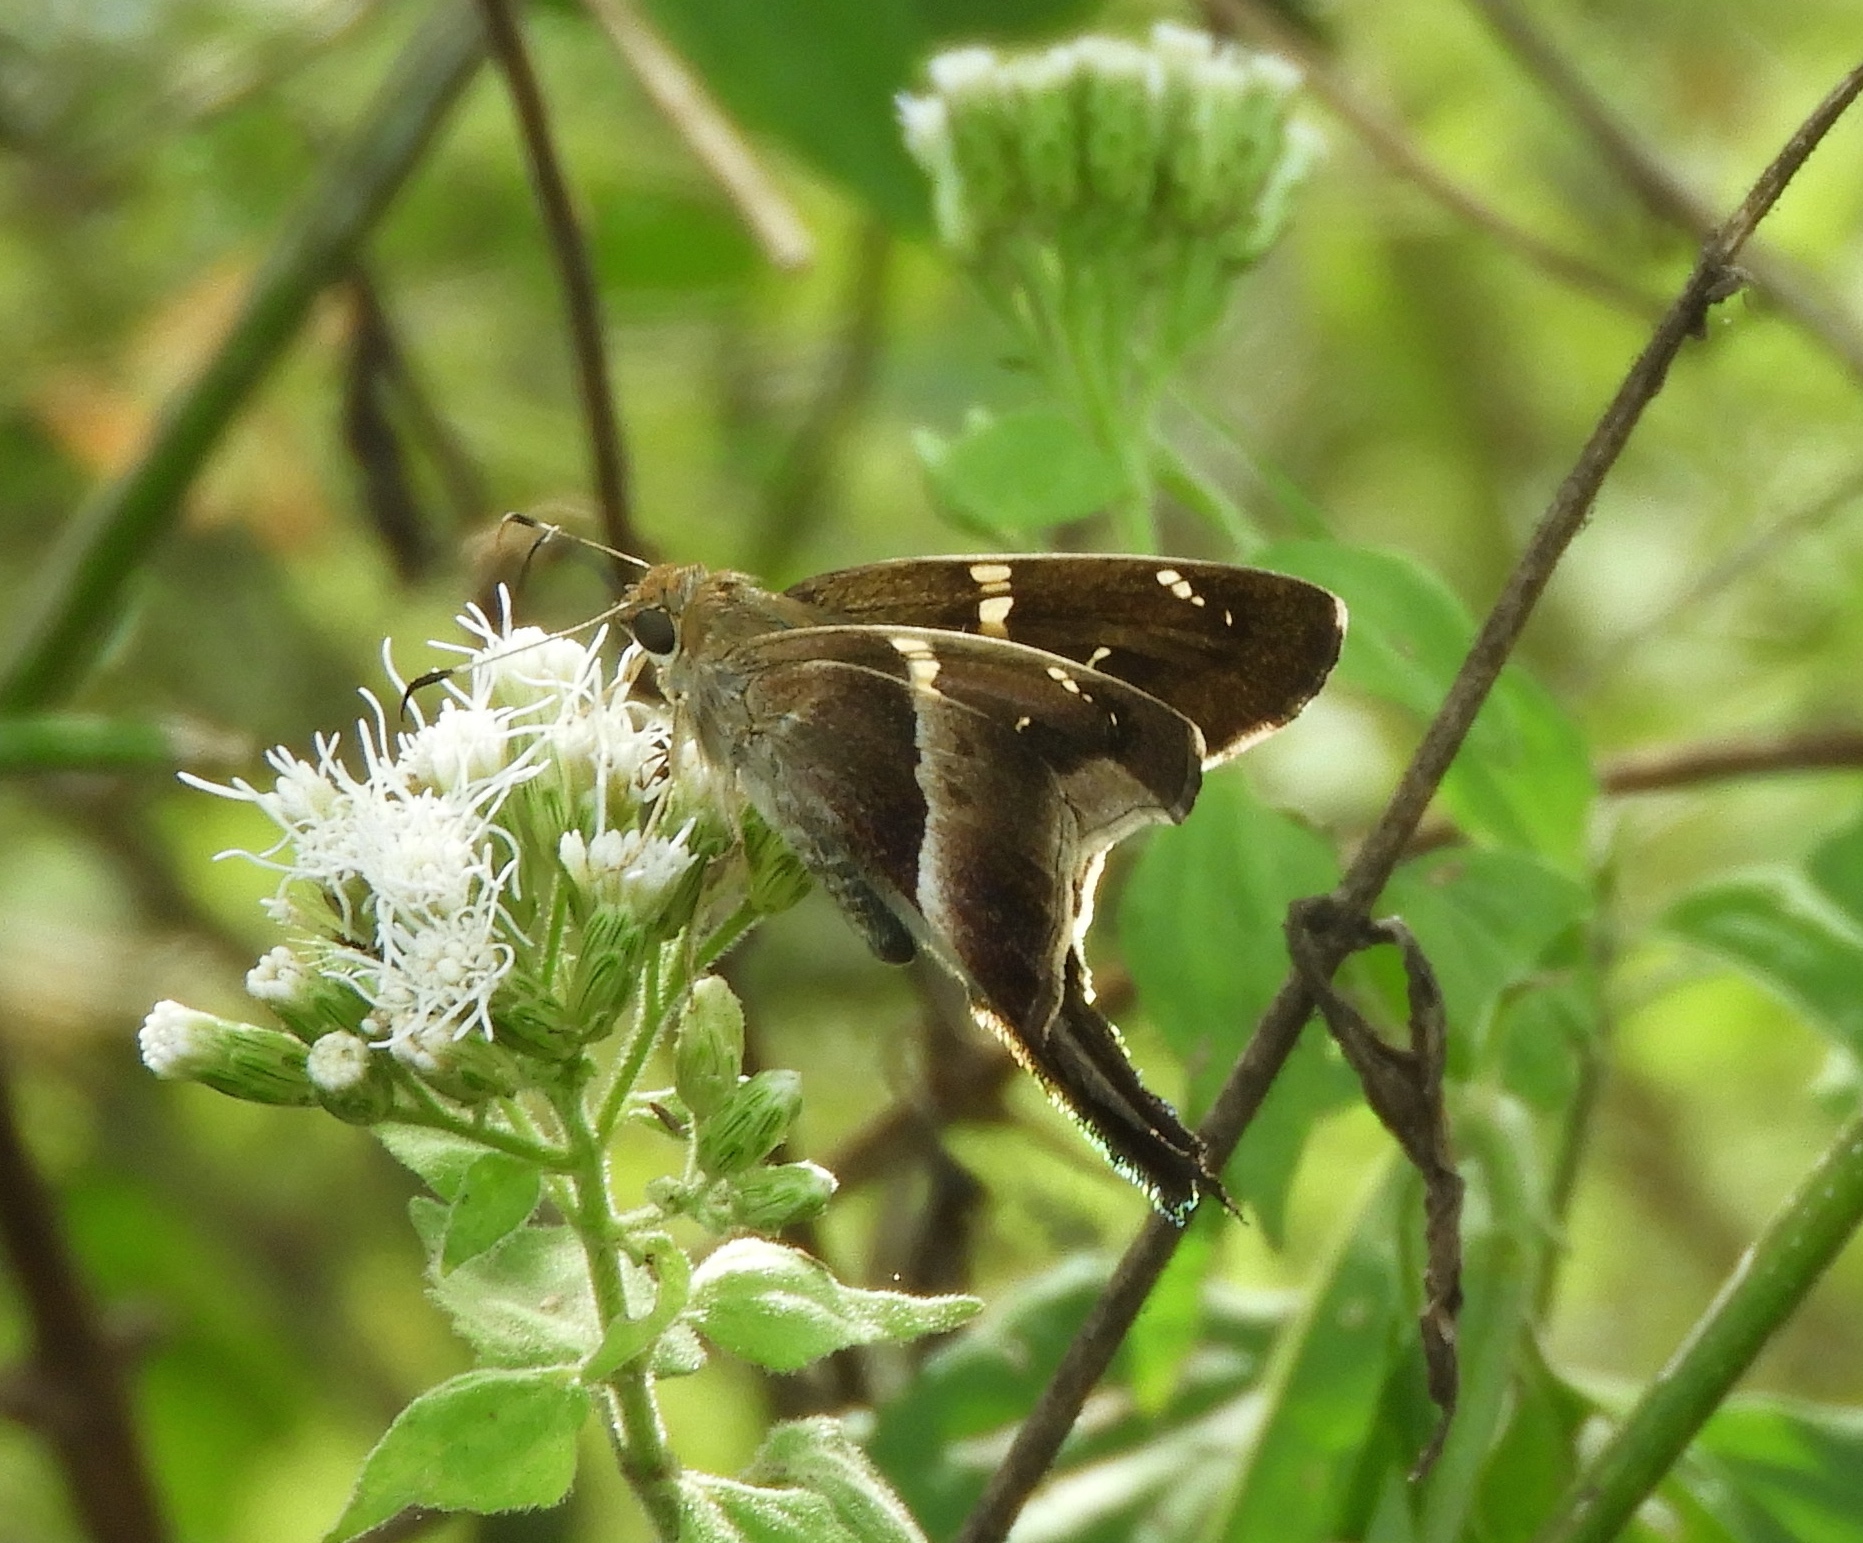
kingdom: Animalia
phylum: Arthropoda
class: Insecta
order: Lepidoptera
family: Hesperiidae
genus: Aguna
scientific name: Aguna
